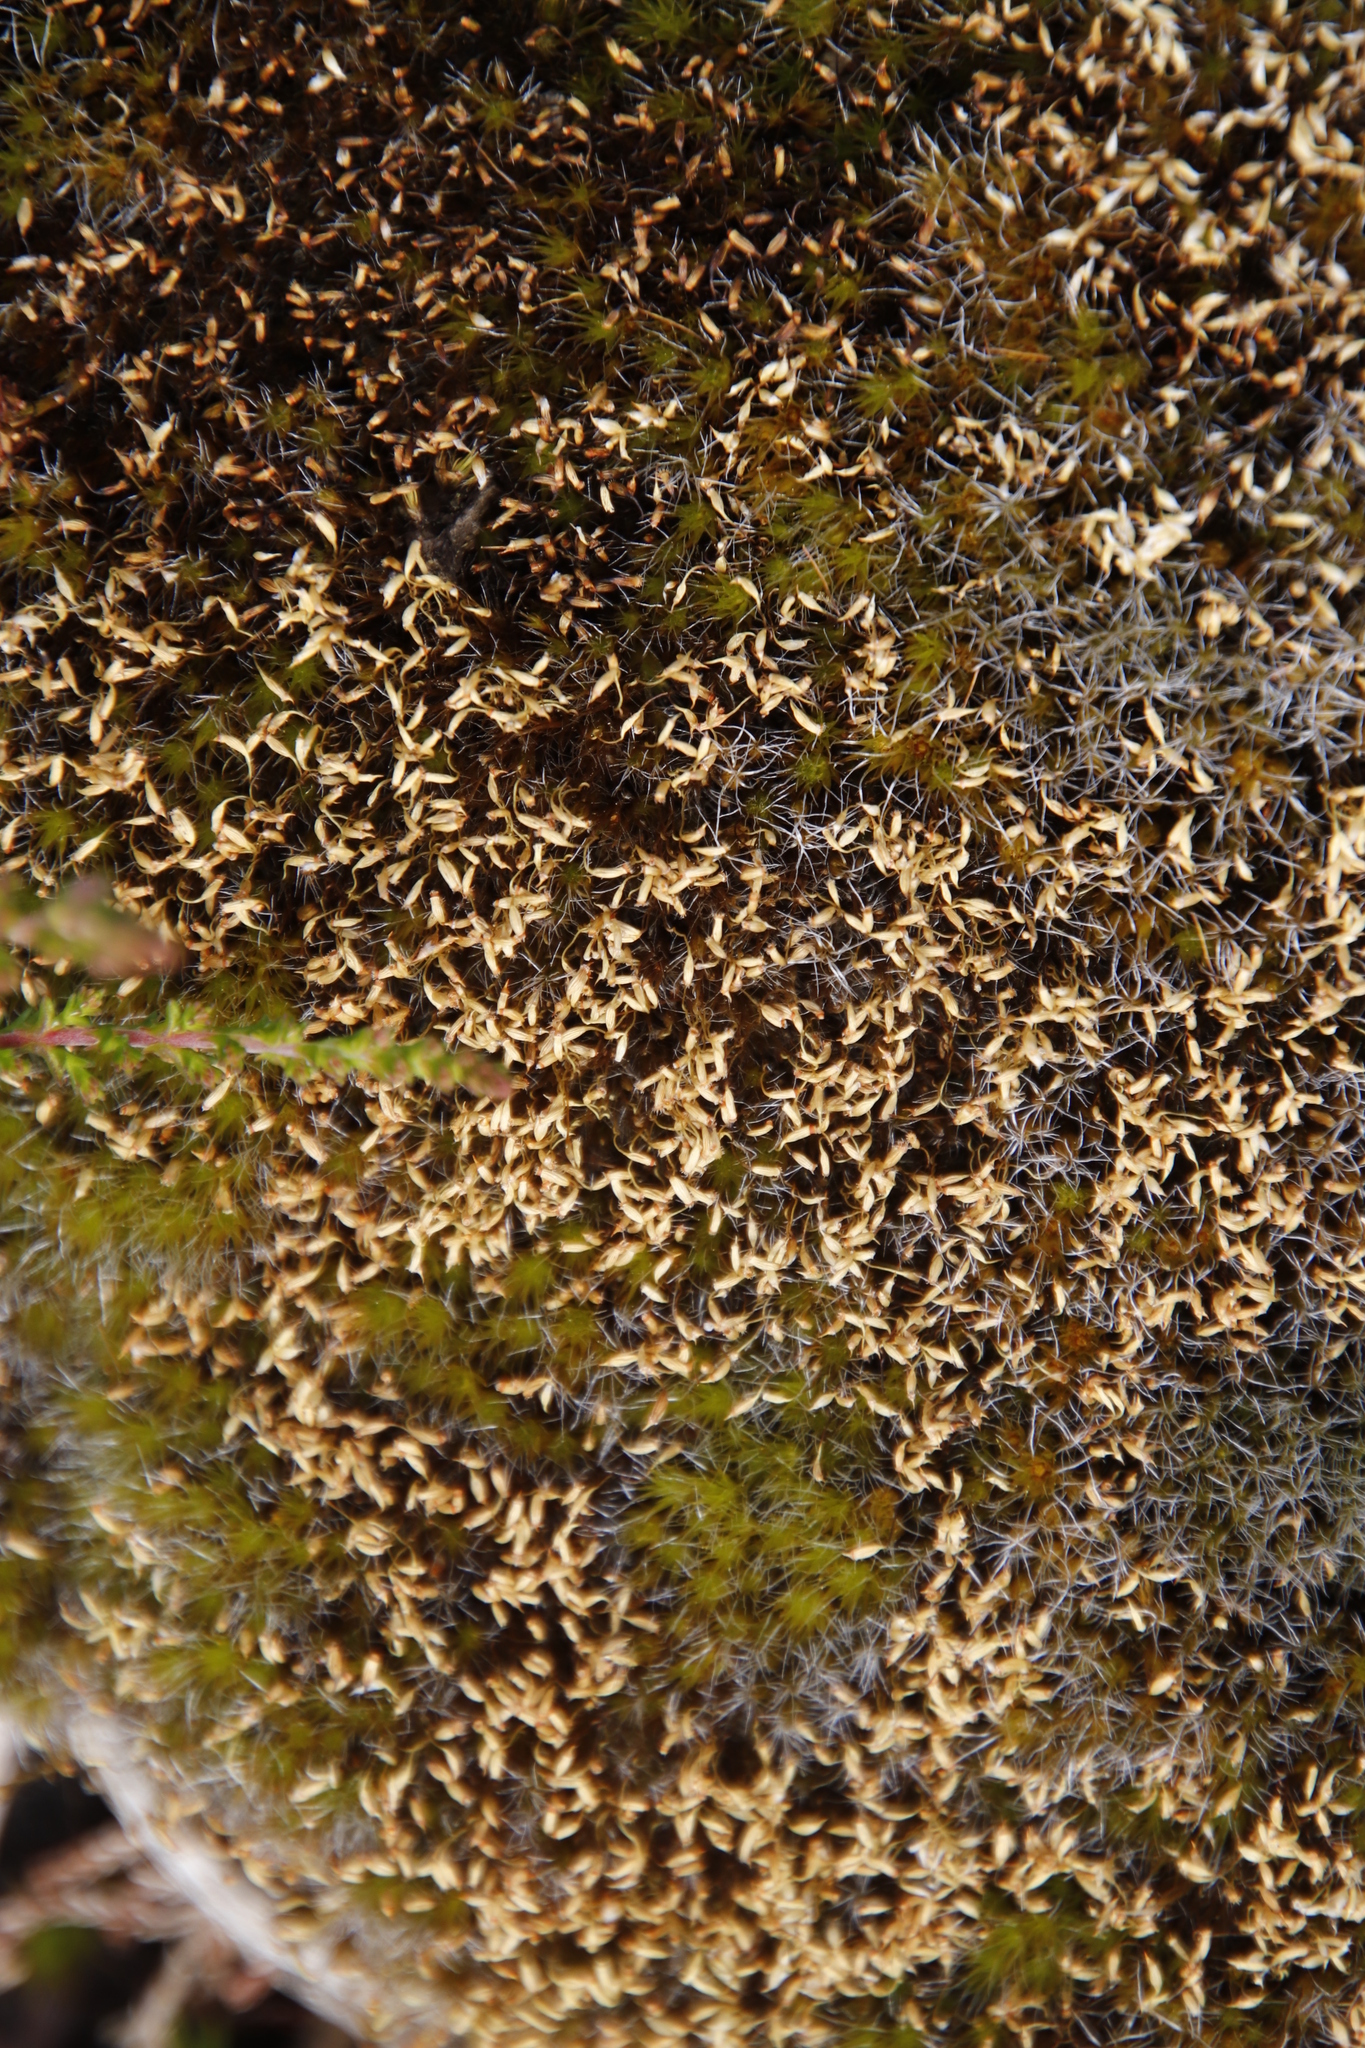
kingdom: Plantae
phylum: Bryophyta
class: Bryopsida
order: Dicranales
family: Leucobryaceae
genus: Campylopus
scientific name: Campylopus introflexus
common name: Heath star moss
